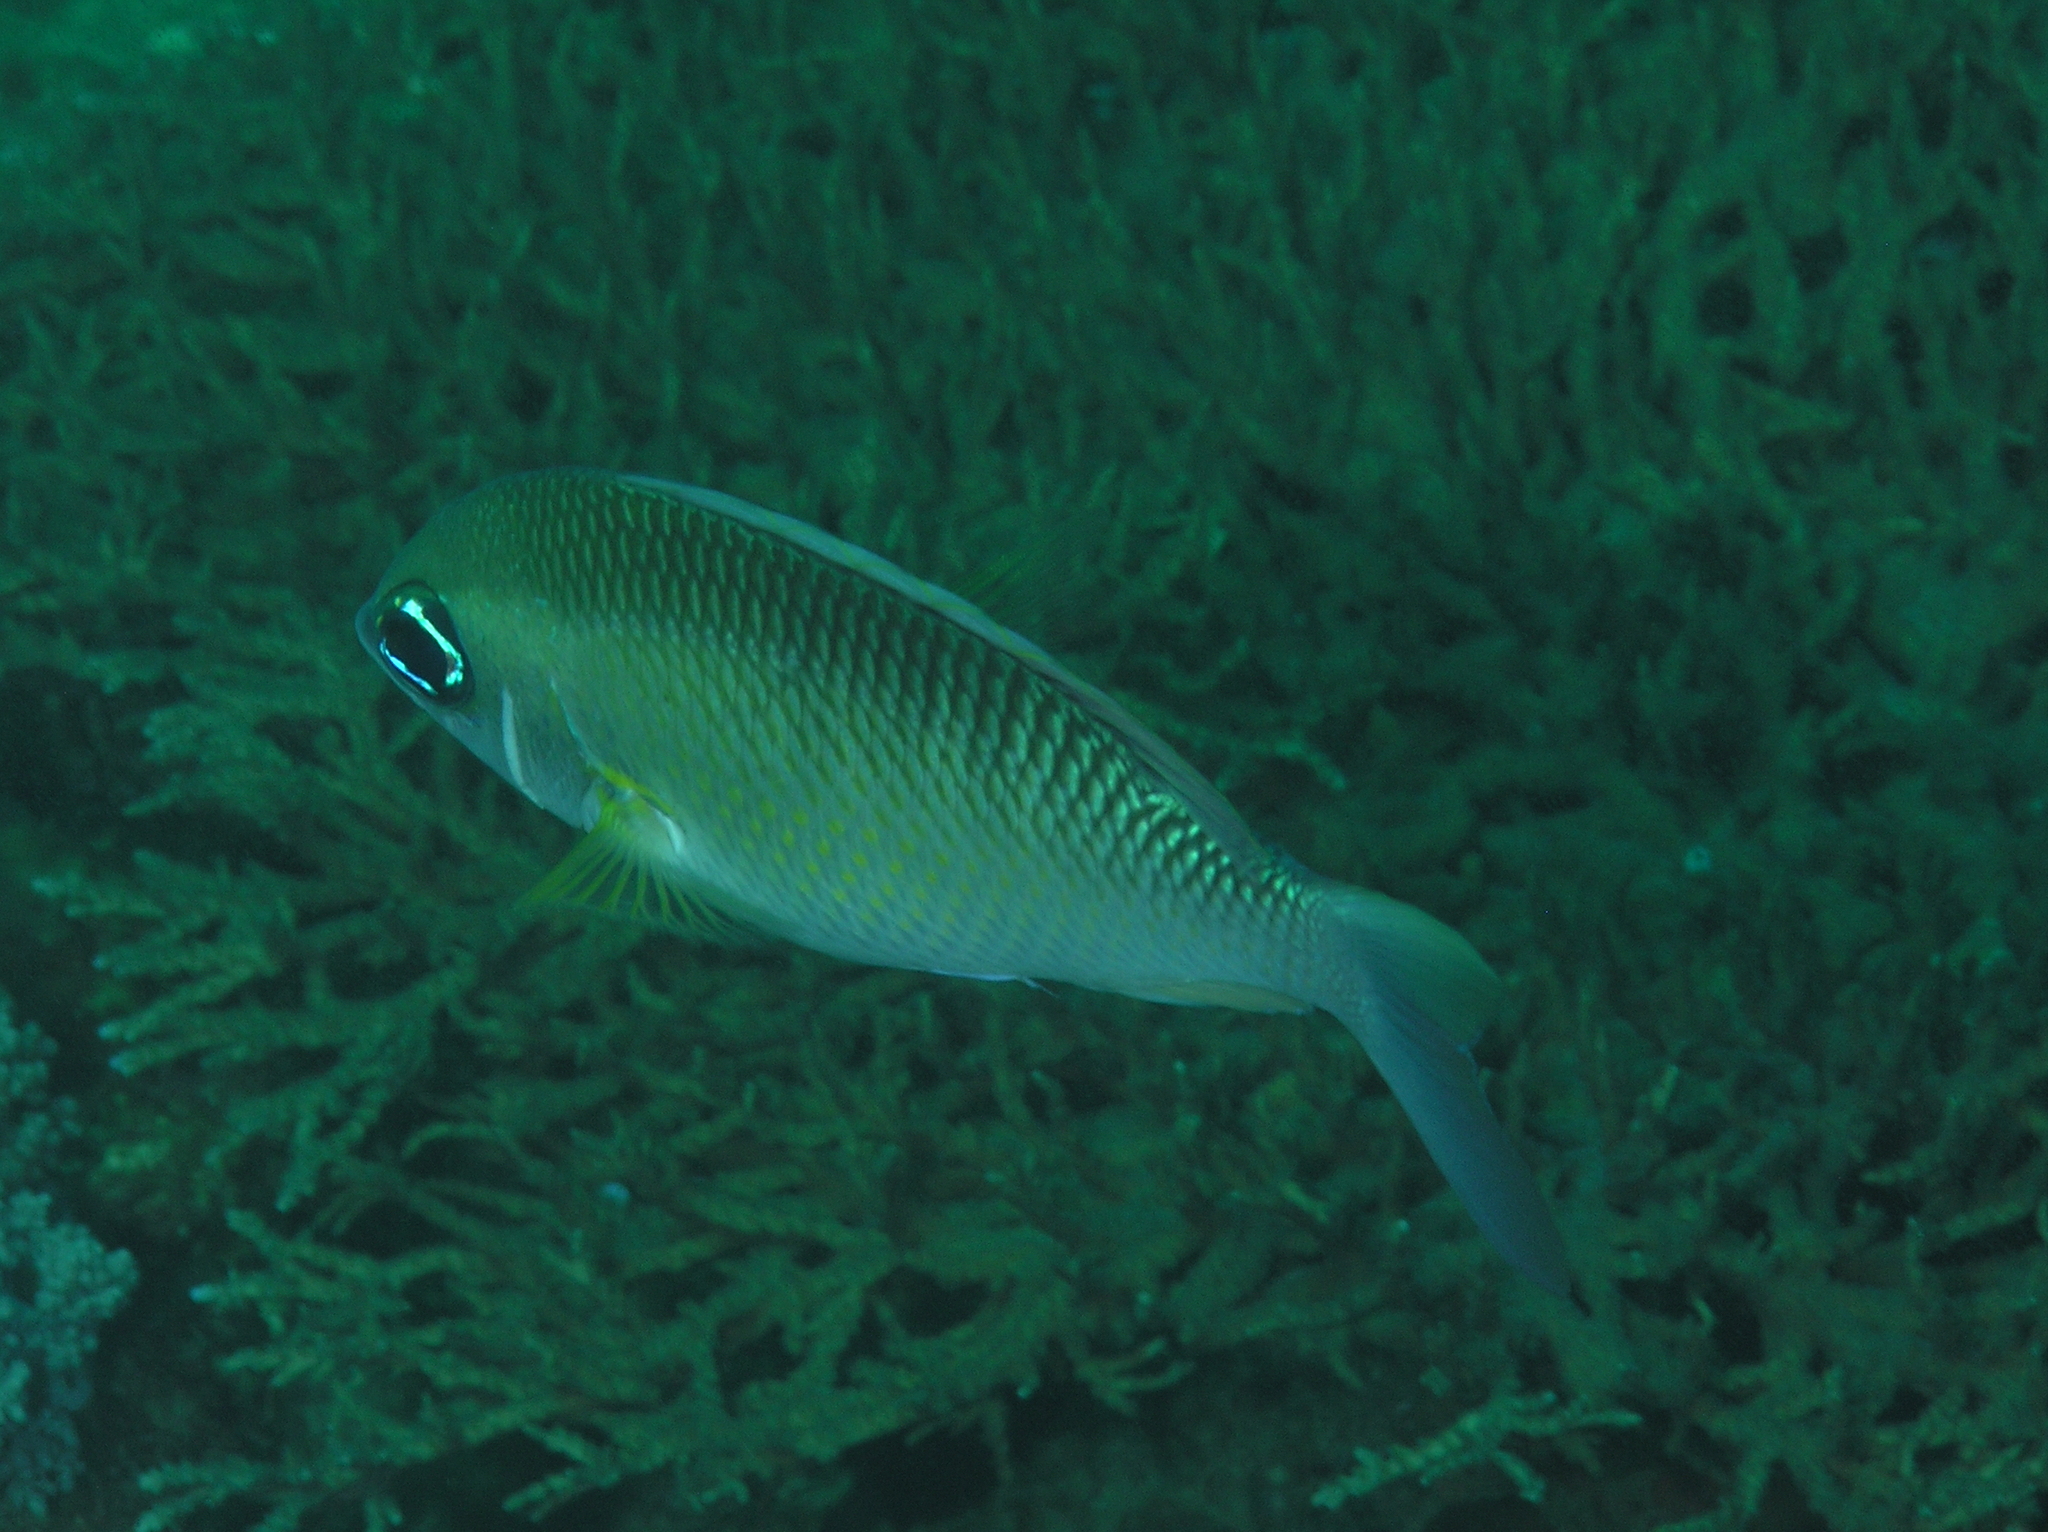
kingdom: Animalia
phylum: Chordata
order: Perciformes
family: Nemipteridae
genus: Scolopsis
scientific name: Scolopsis margaritifera
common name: Pearly monocle bream
